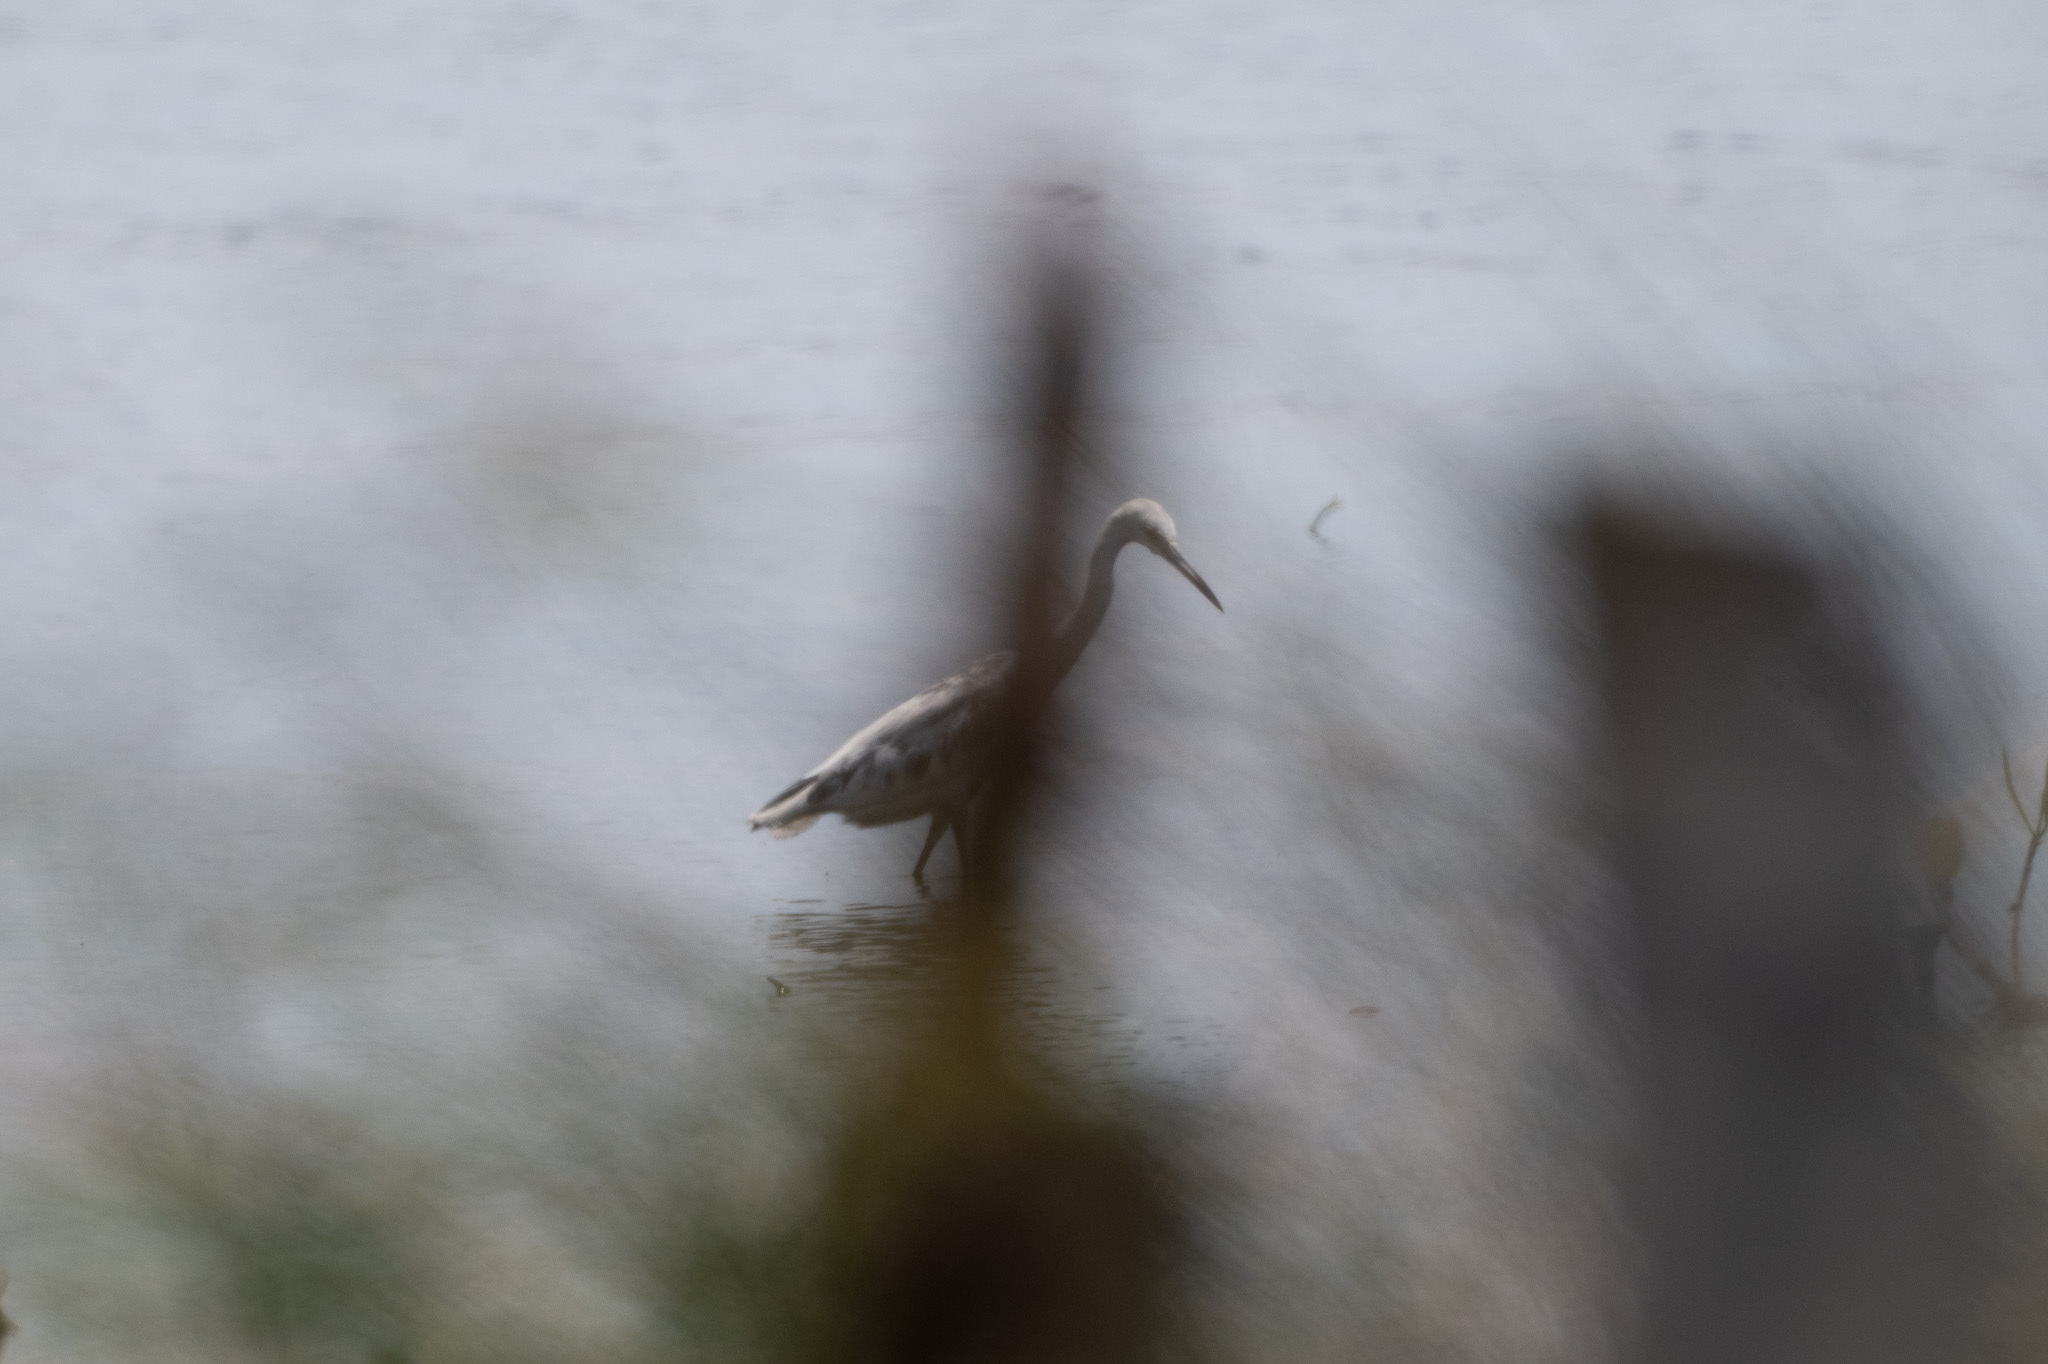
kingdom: Animalia
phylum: Chordata
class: Aves
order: Pelecaniformes
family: Ardeidae
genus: Egretta
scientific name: Egretta caerulea
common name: Little blue heron
